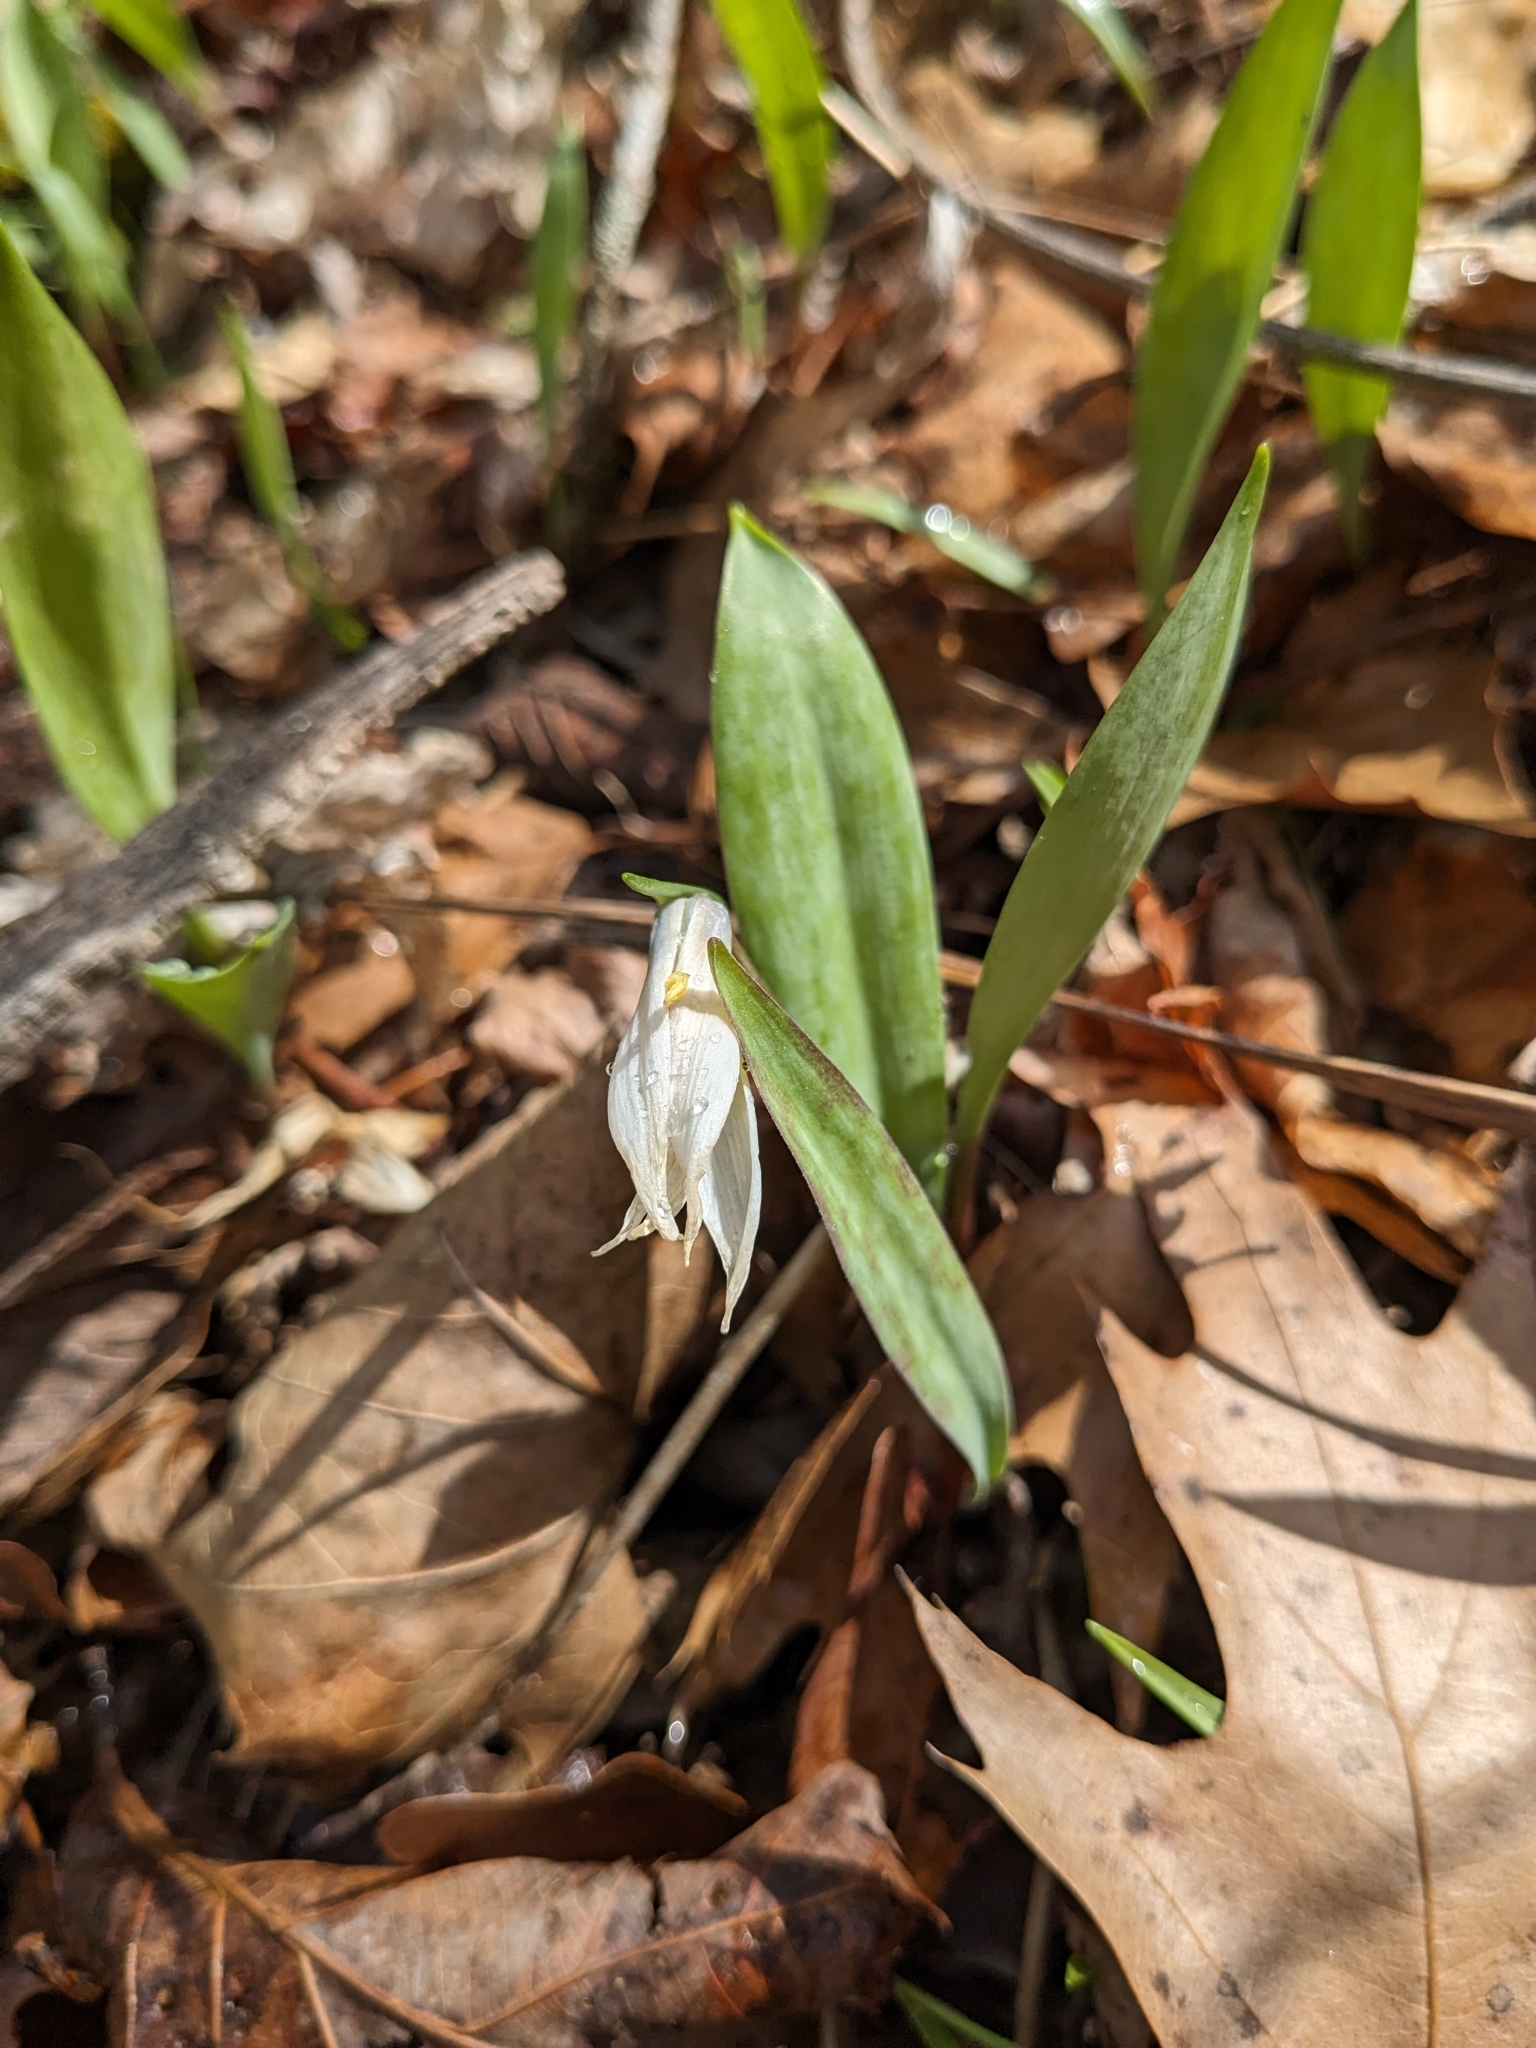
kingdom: Plantae
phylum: Tracheophyta
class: Liliopsida
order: Liliales
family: Liliaceae
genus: Erythronium
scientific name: Erythronium albidum
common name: White trout-lily
